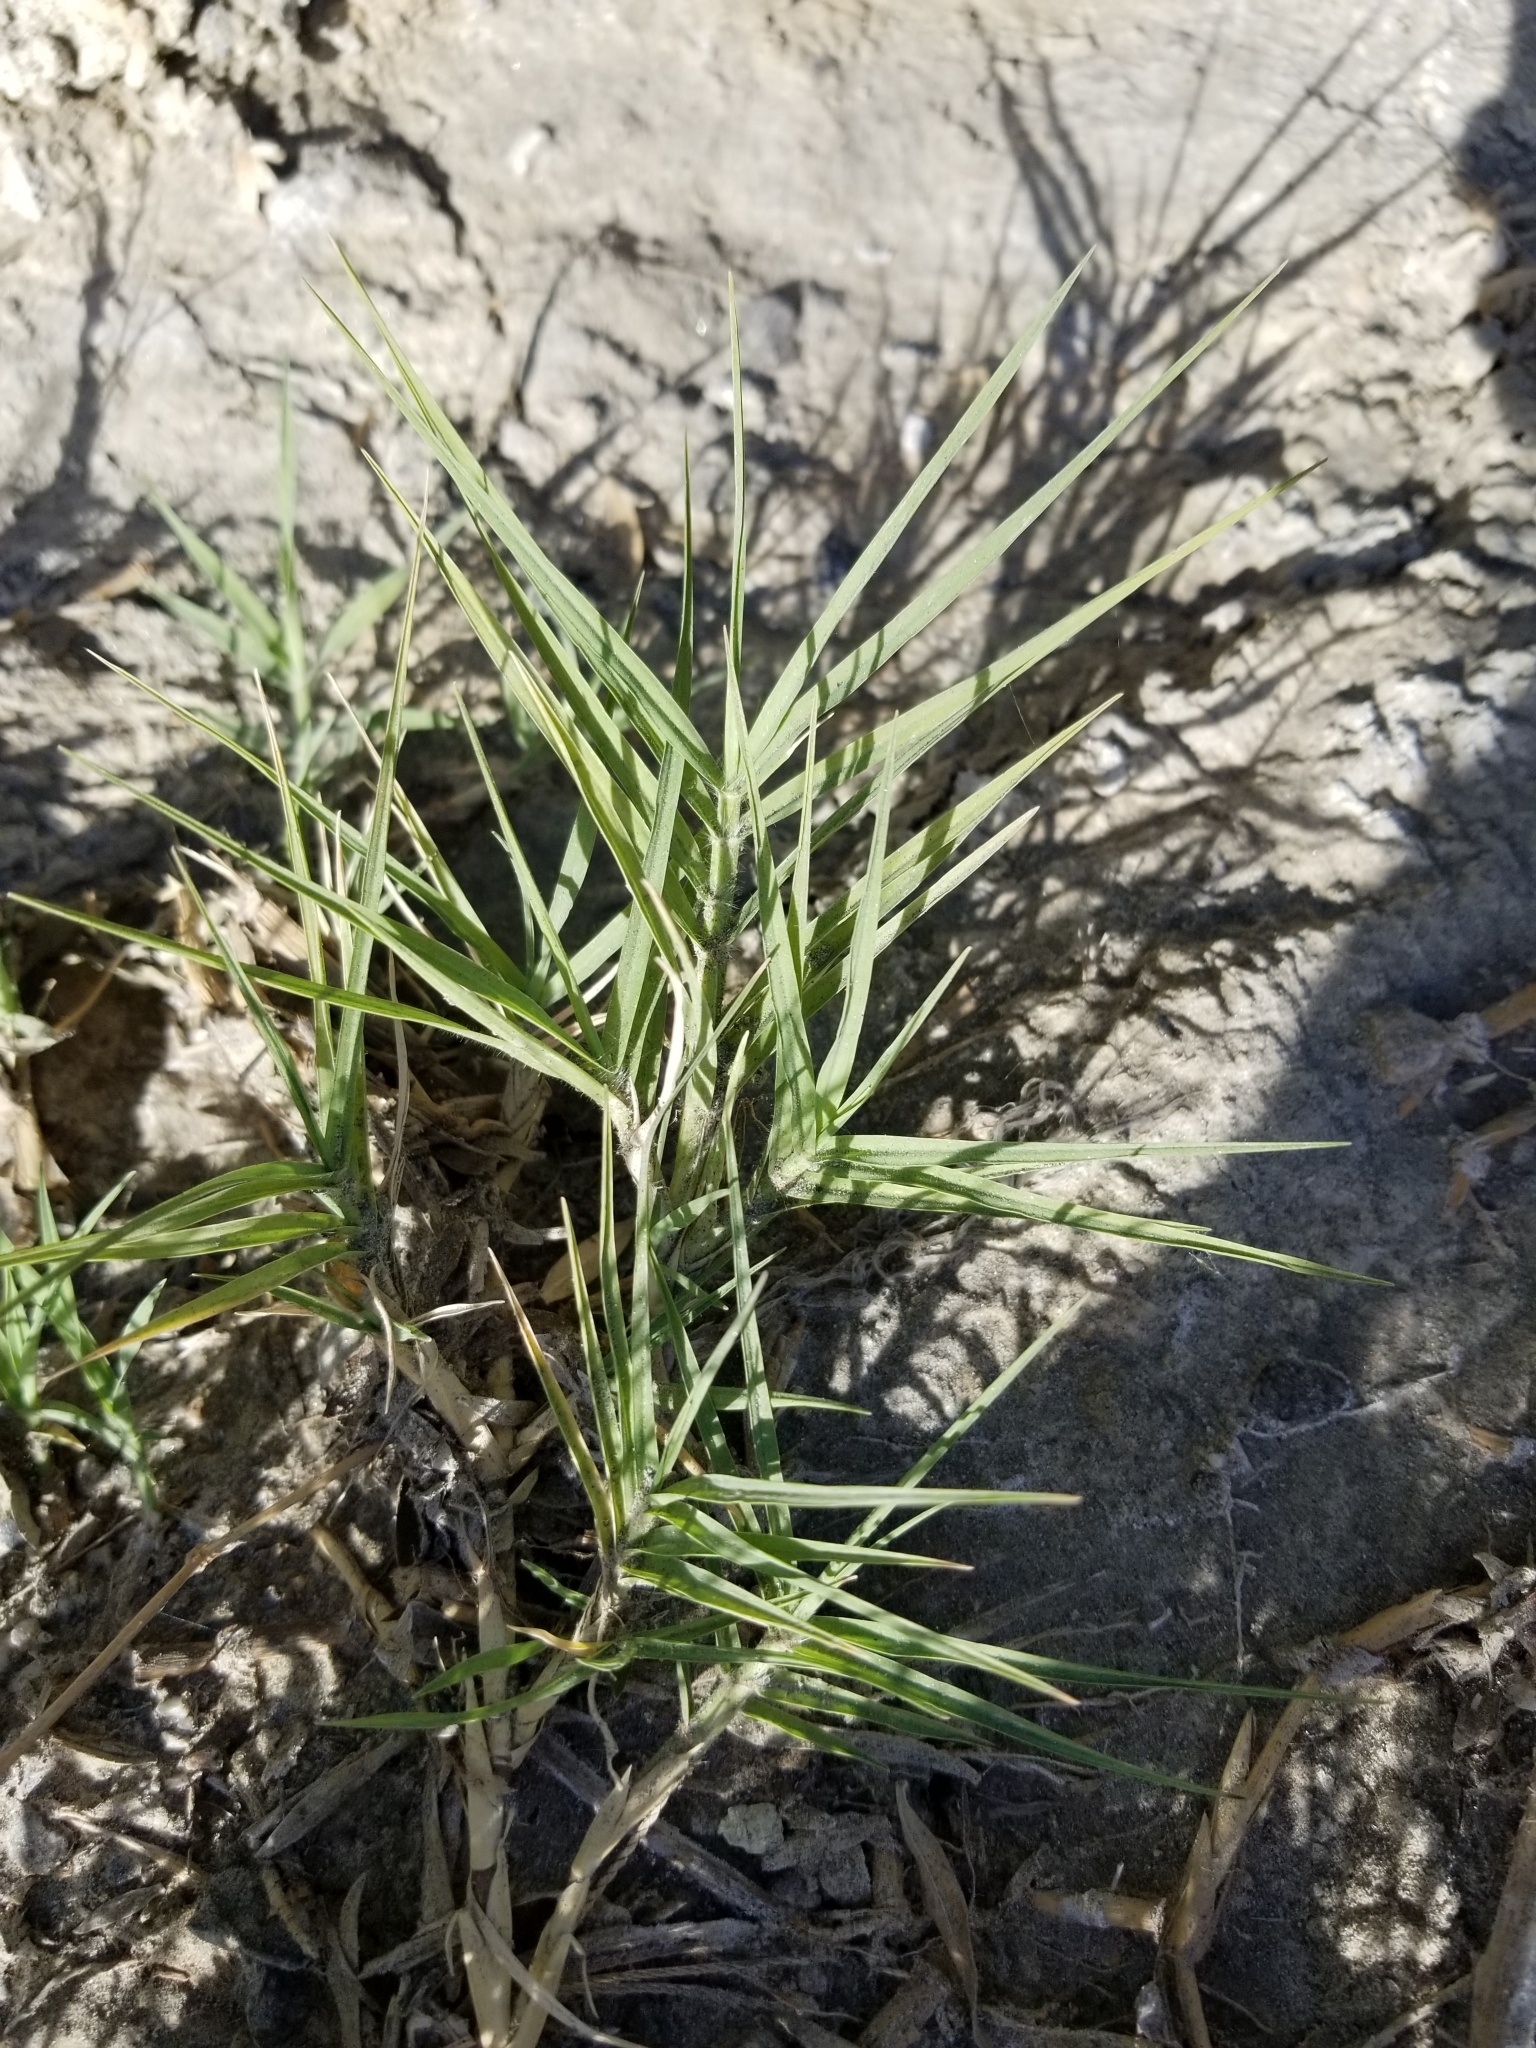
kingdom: Plantae
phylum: Tracheophyta
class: Liliopsida
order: Poales
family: Poaceae
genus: Distichlis
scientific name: Distichlis spicata
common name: Saltgrass
